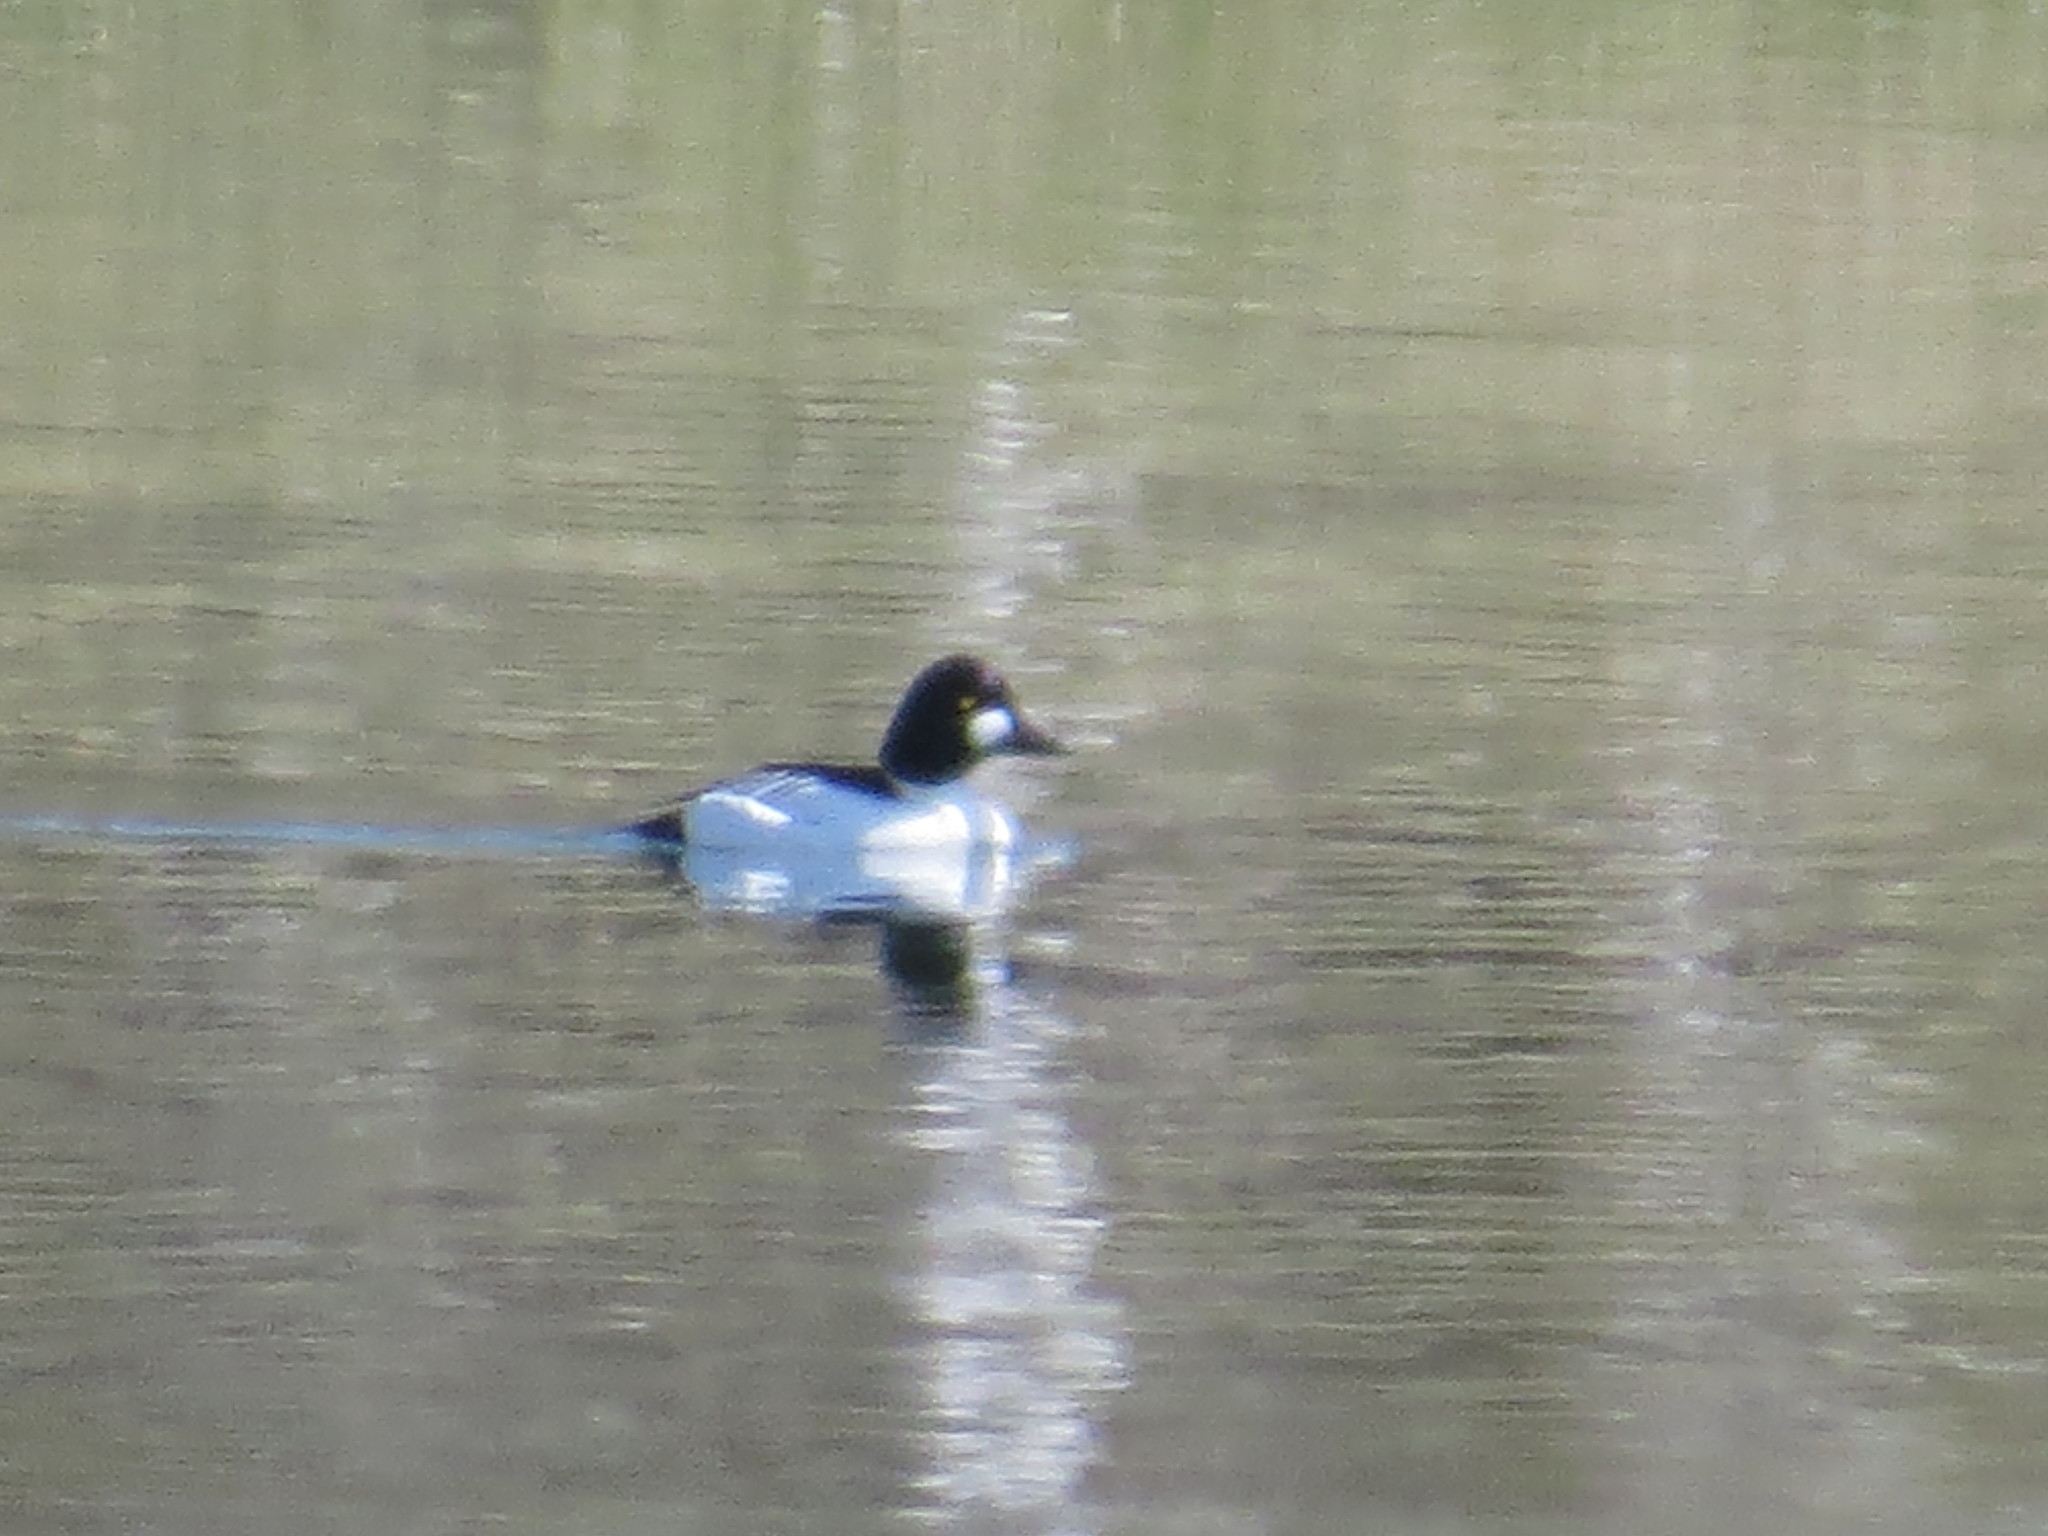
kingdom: Animalia
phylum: Chordata
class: Aves
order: Anseriformes
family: Anatidae
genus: Bucephala
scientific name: Bucephala clangula
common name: Common goldeneye
